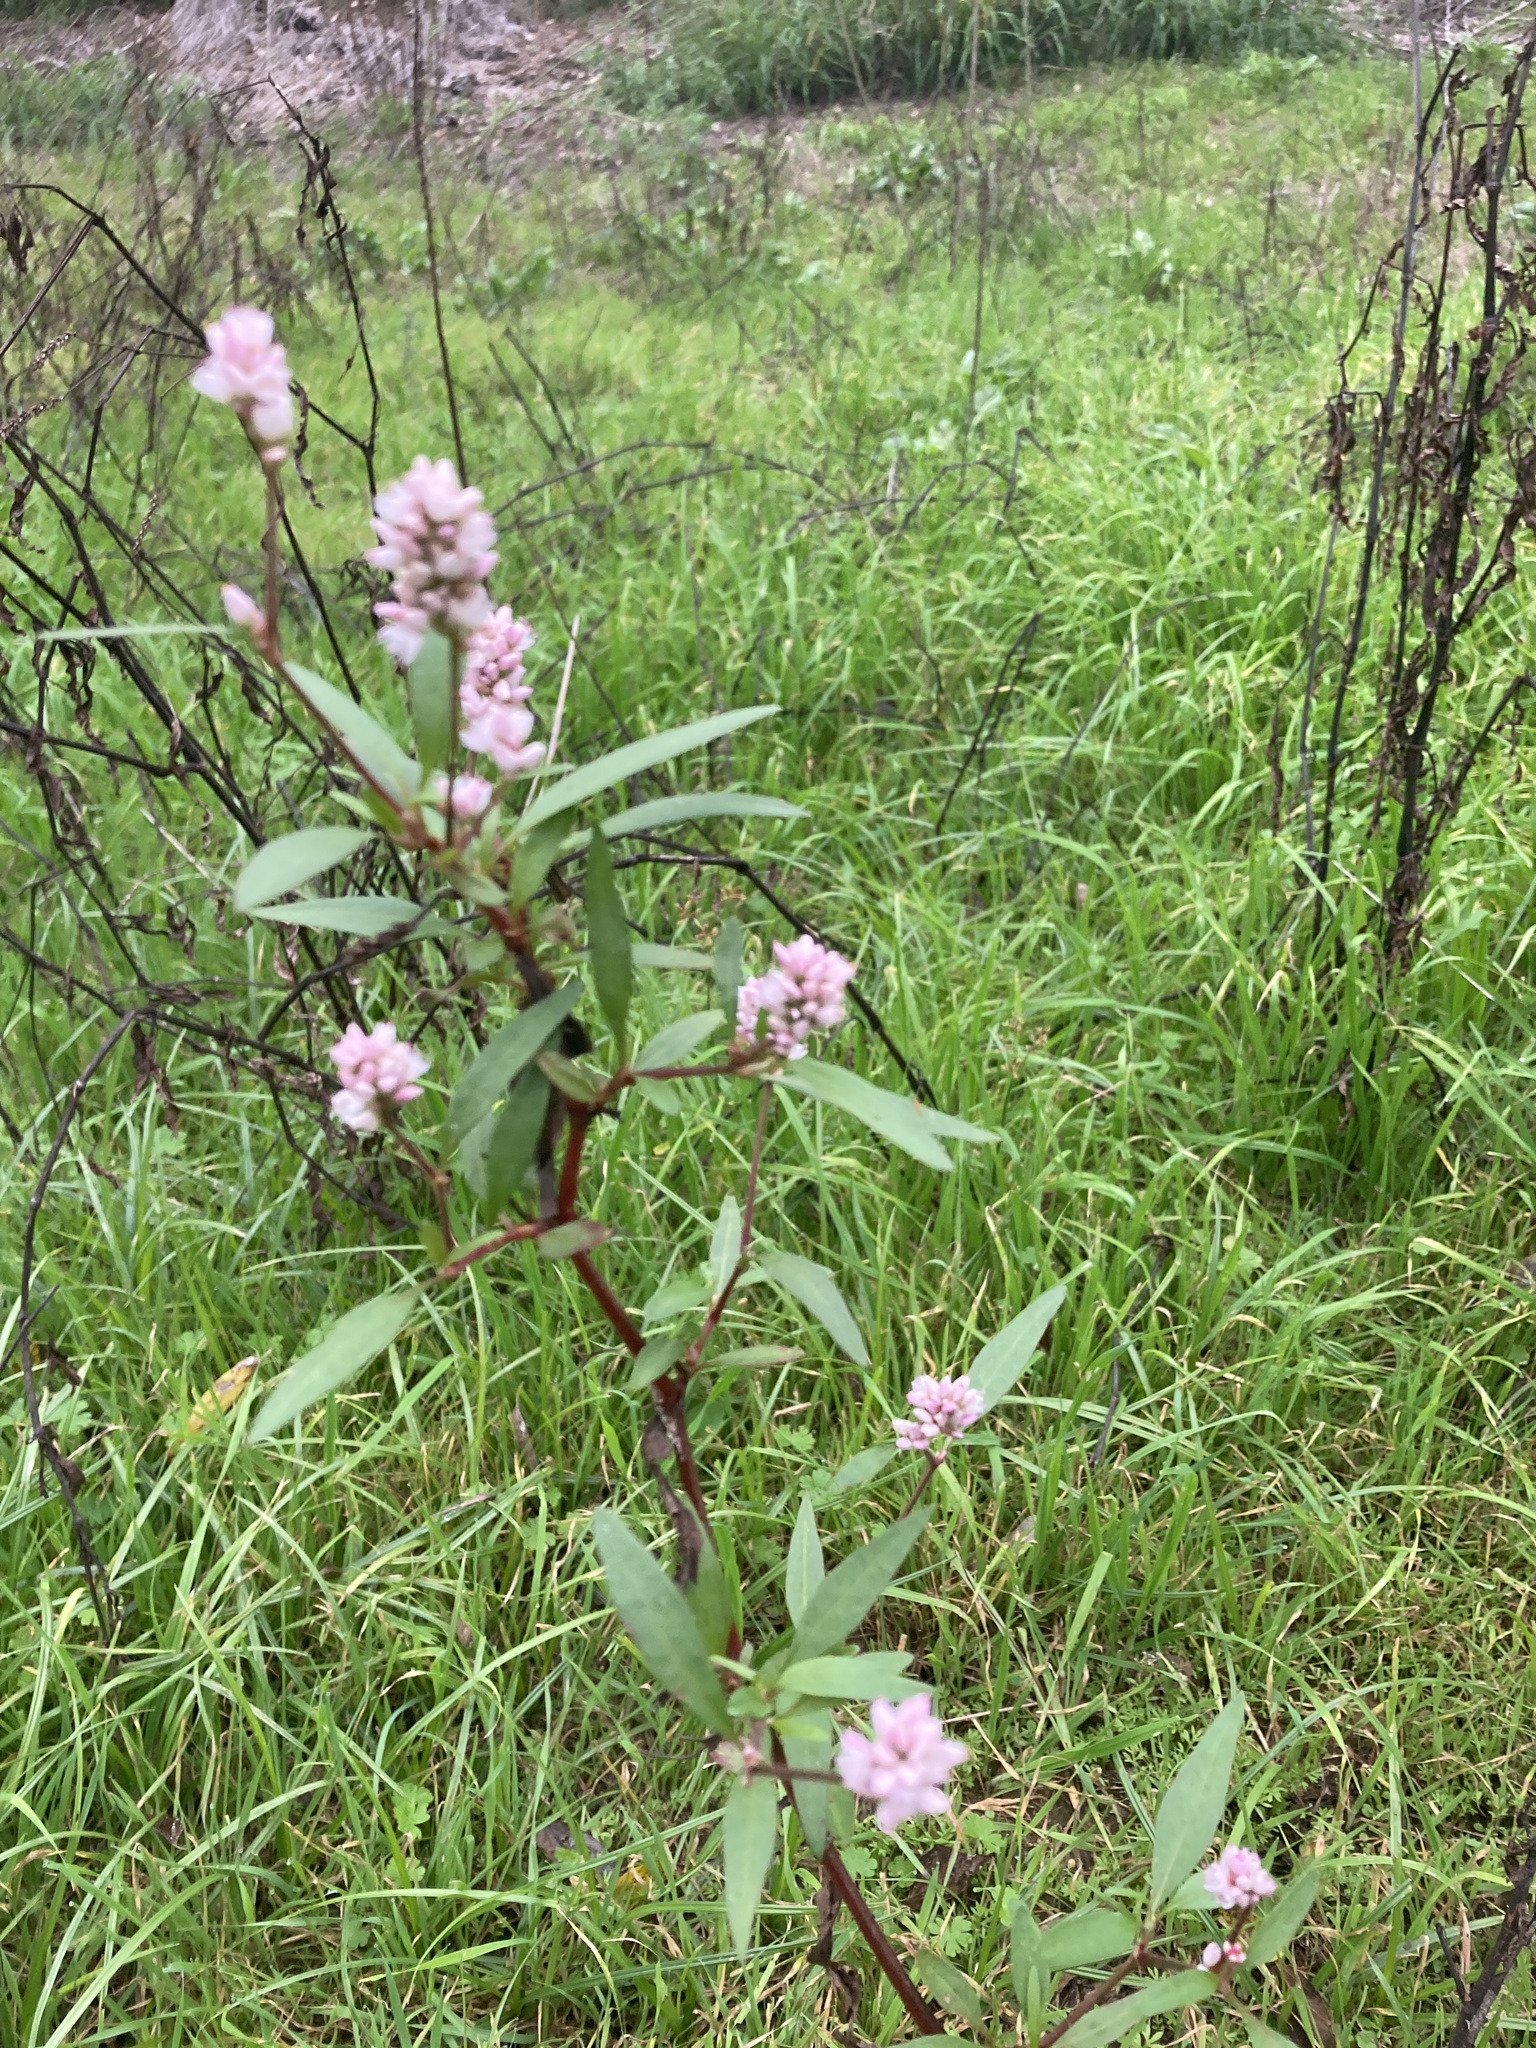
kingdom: Plantae
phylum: Tracheophyta
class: Magnoliopsida
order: Caryophyllales
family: Polygonaceae
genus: Persicaria
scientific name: Persicaria bicornis
